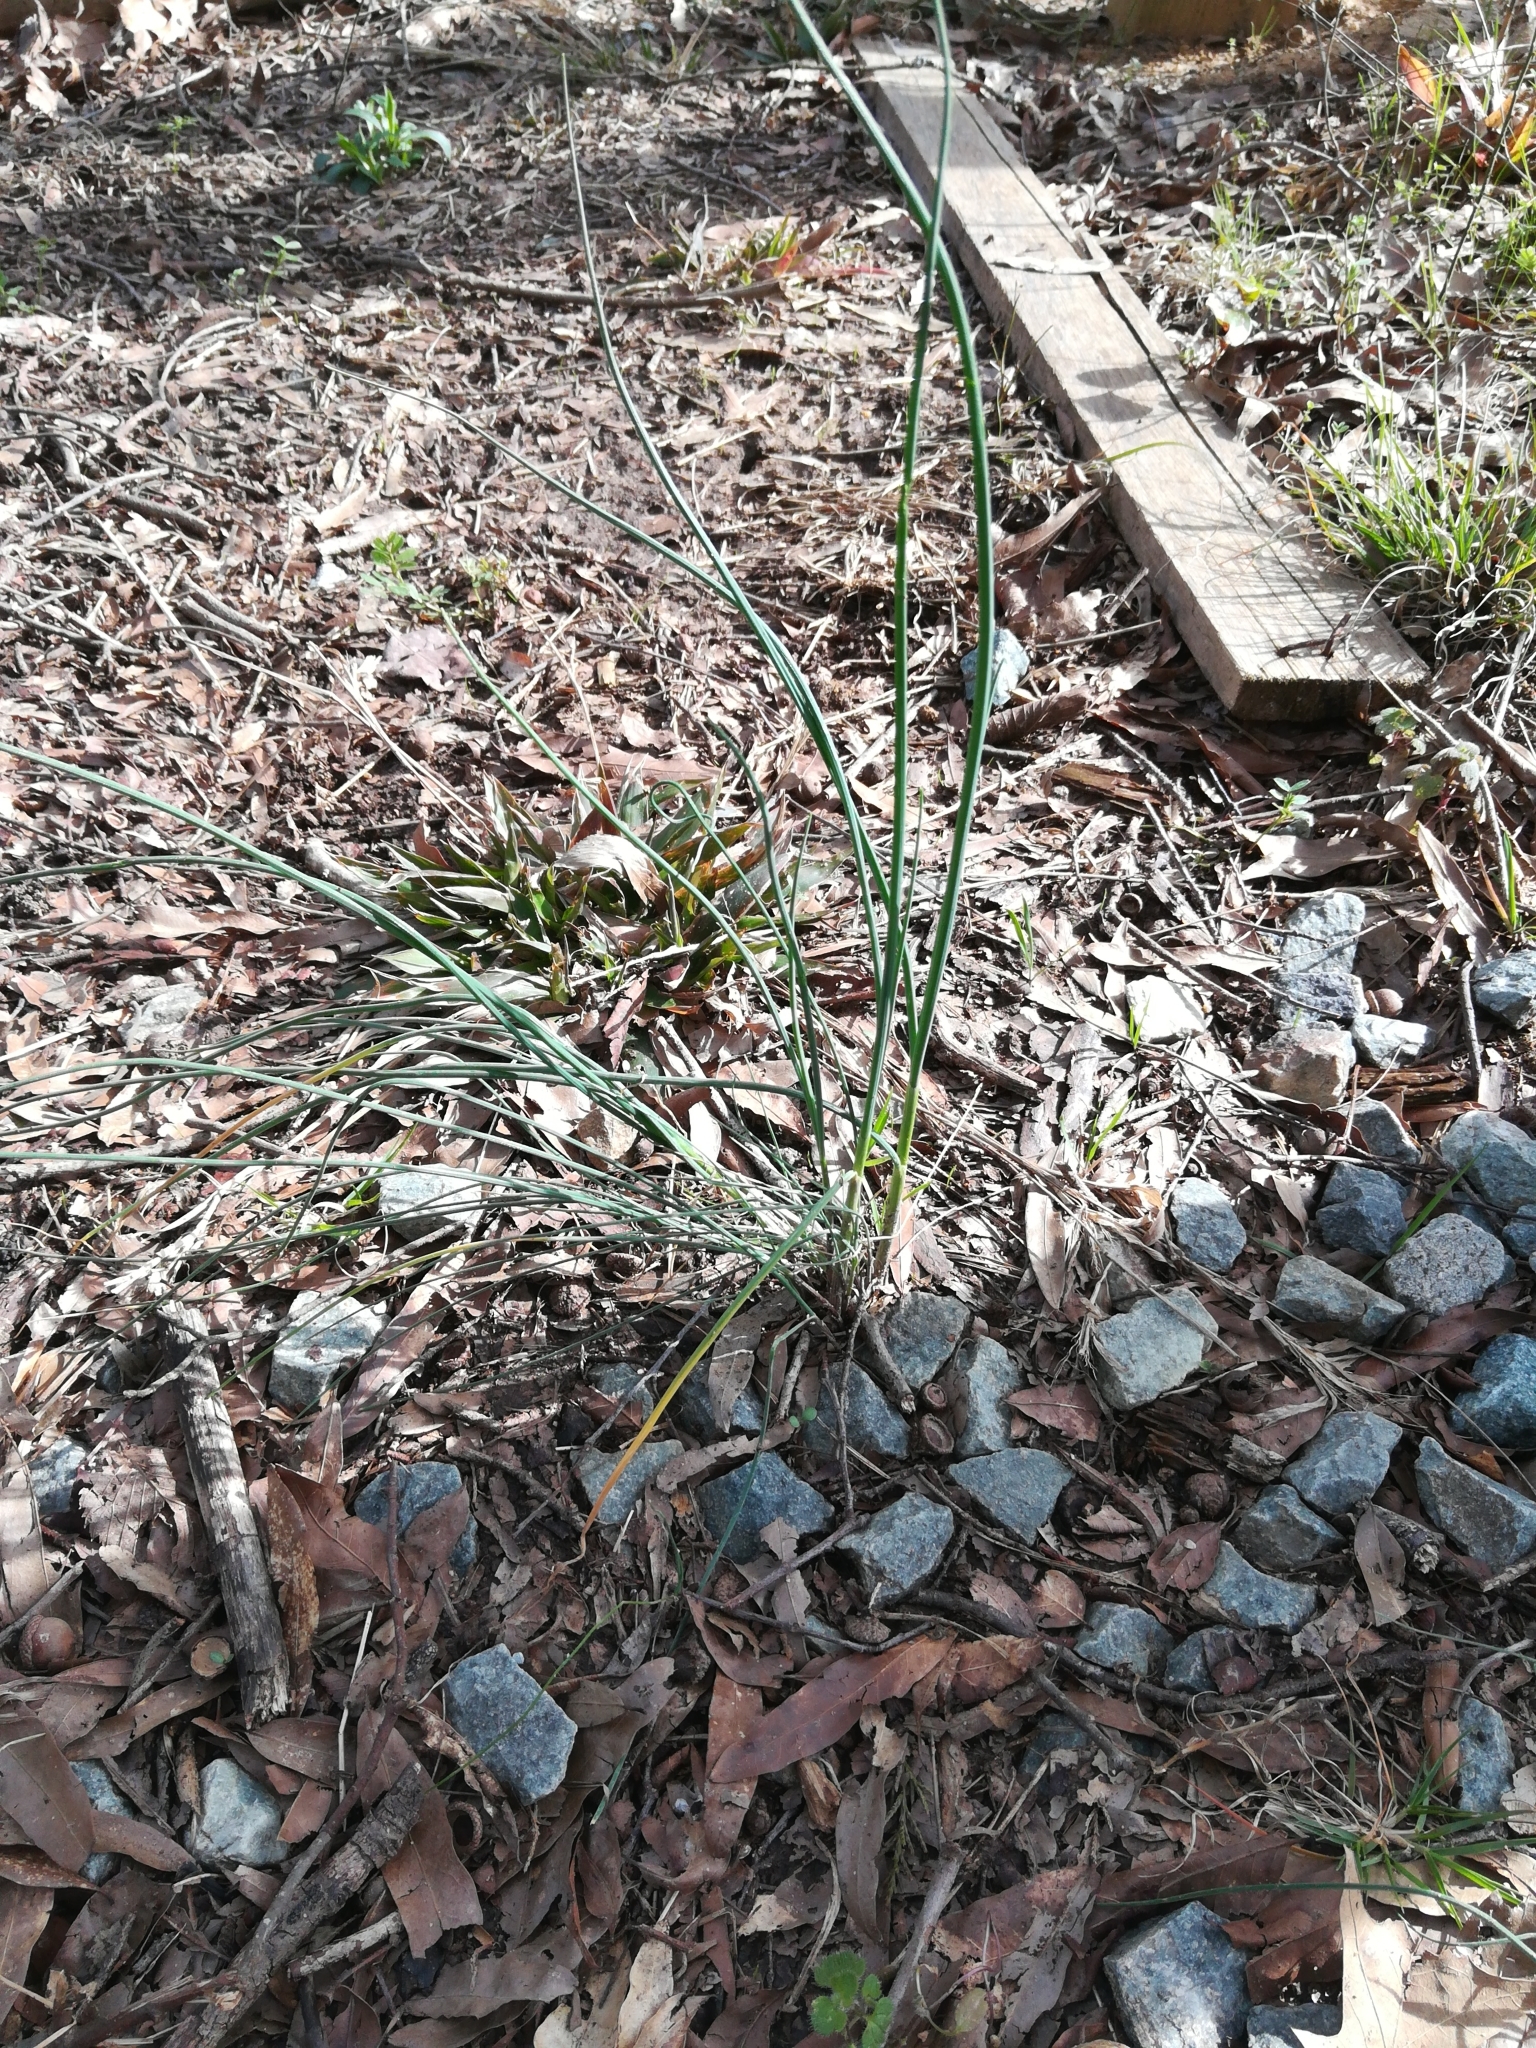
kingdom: Plantae
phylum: Tracheophyta
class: Liliopsida
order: Asparagales
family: Amaryllidaceae
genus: Allium
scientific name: Allium vineale
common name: Crow garlic
